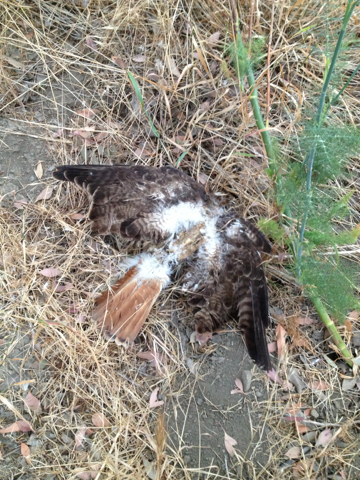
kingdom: Animalia
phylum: Chordata
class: Aves
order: Accipitriformes
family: Accipitridae
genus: Buteo
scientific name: Buteo jamaicensis
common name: Red-tailed hawk
